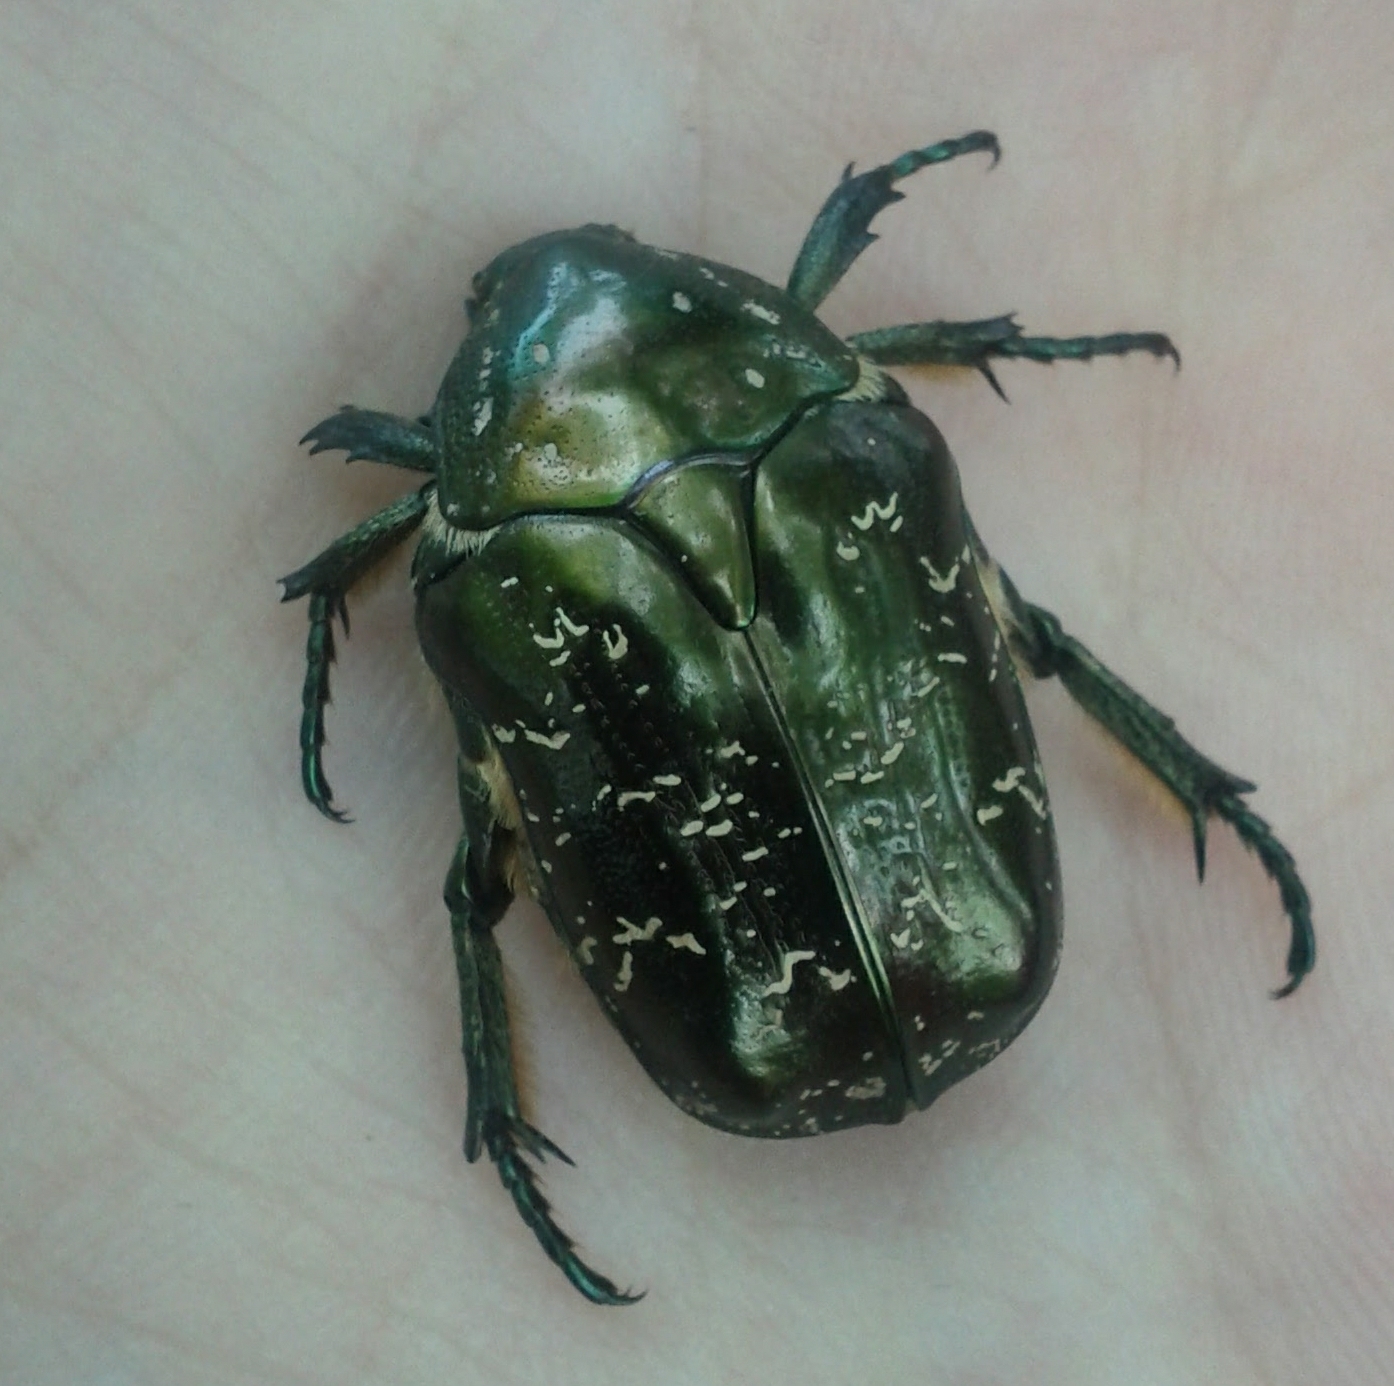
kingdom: Animalia
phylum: Arthropoda
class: Insecta
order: Coleoptera
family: Scarabaeidae
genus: Protaetia
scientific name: Protaetia marmorata
